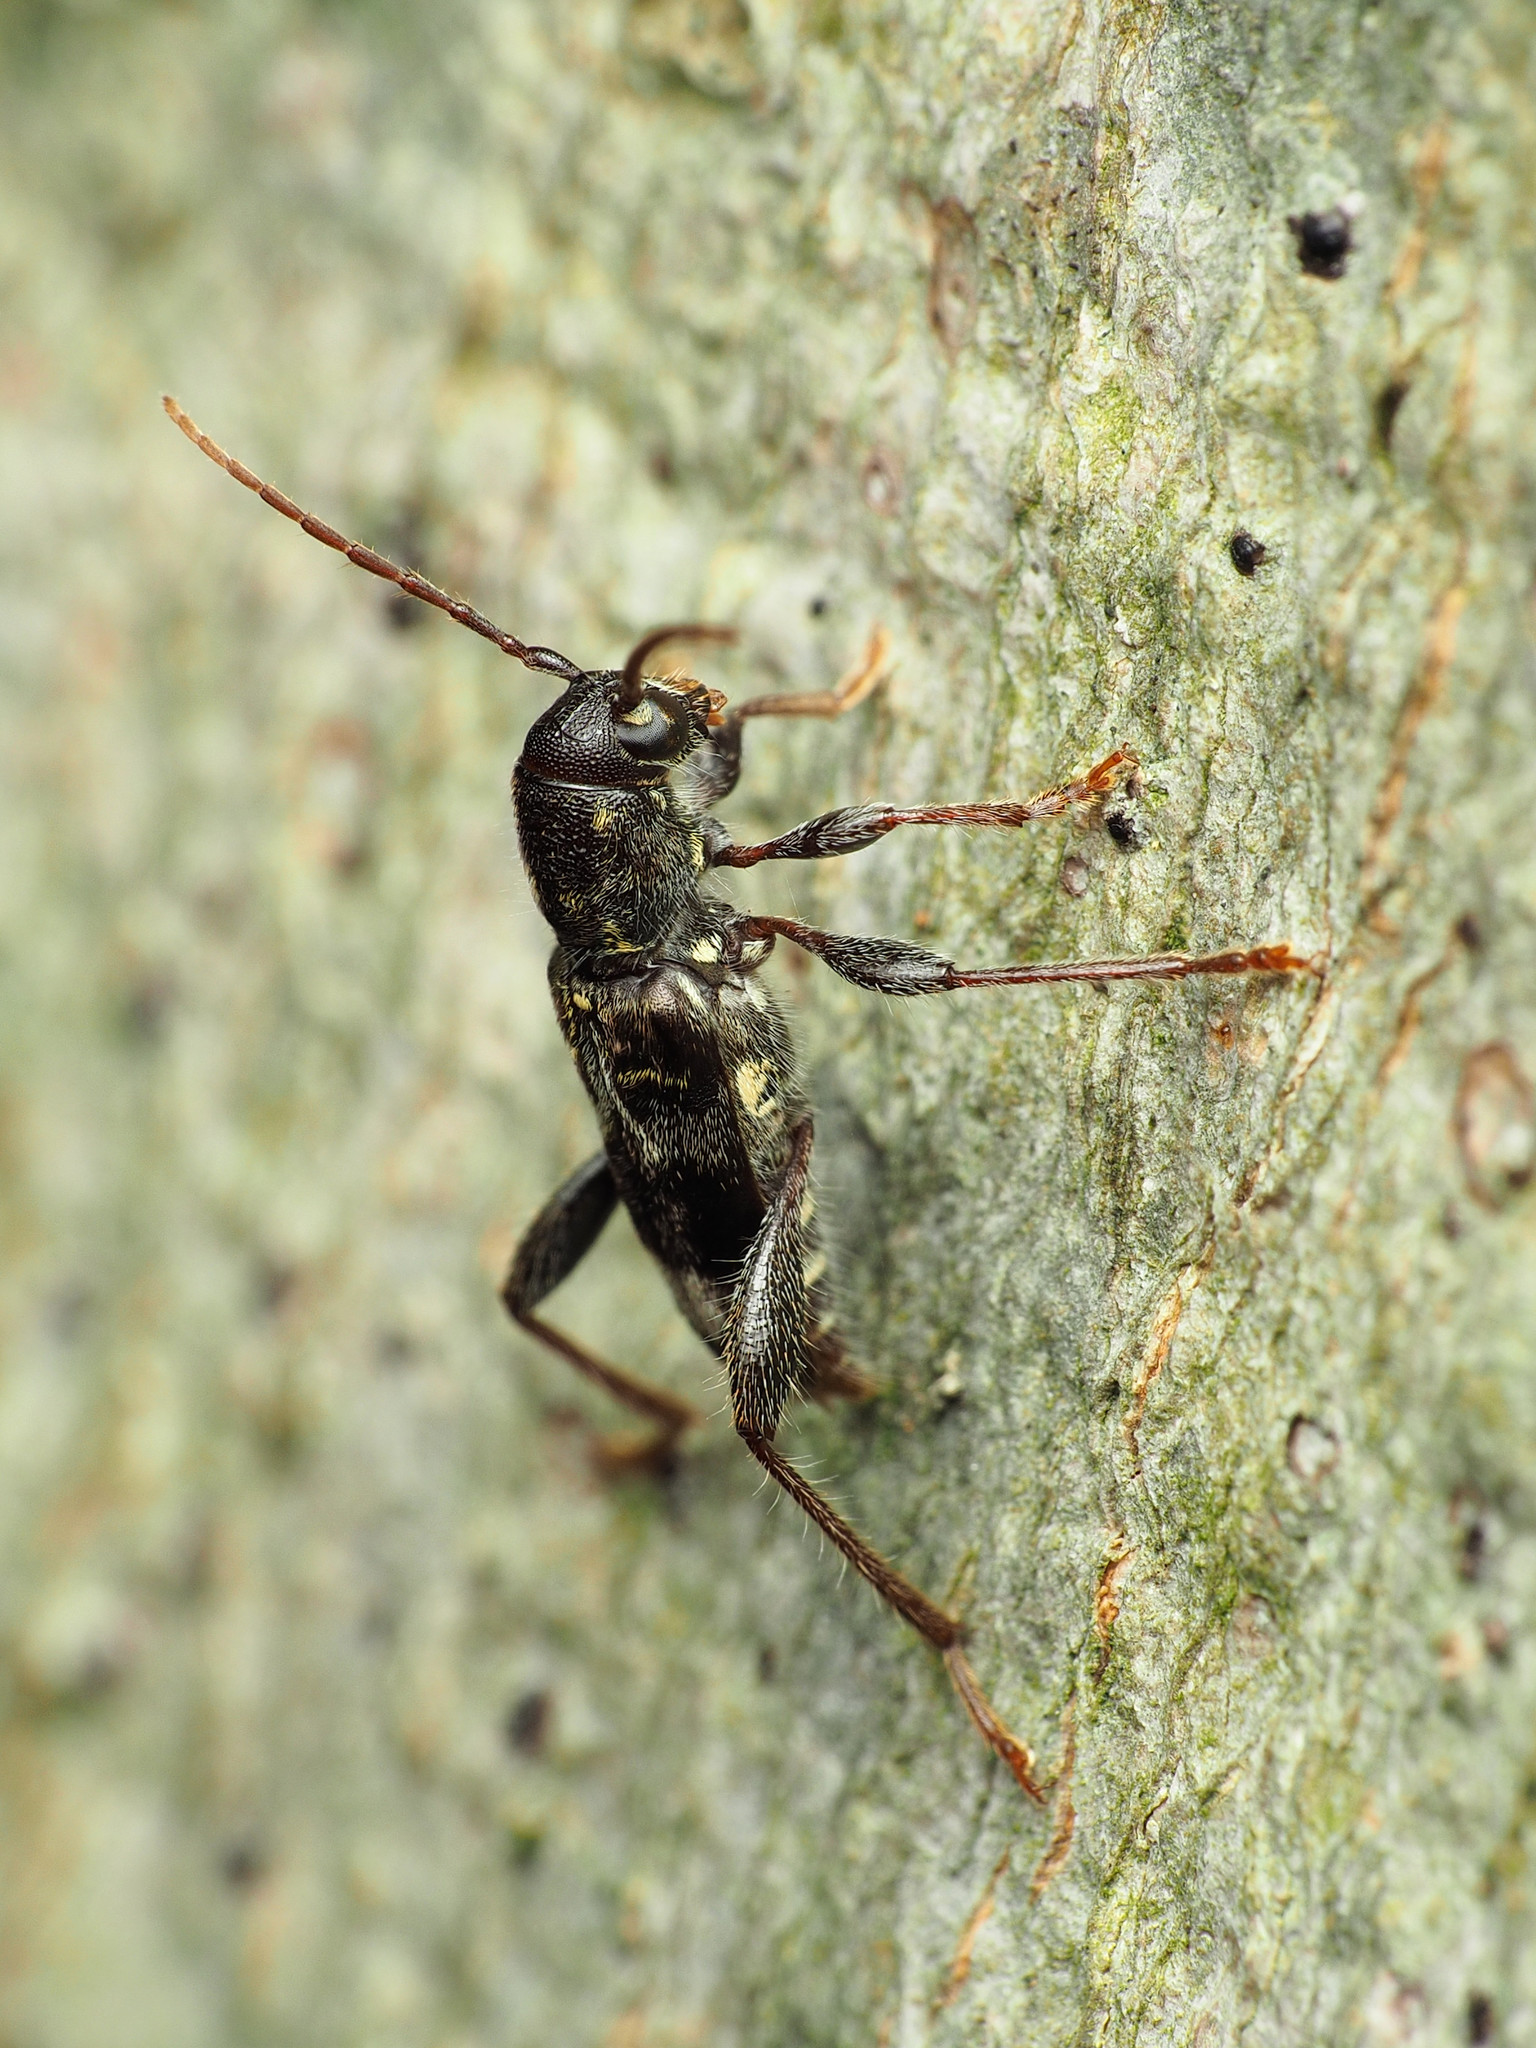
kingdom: Animalia
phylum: Arthropoda
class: Insecta
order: Coleoptera
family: Cerambycidae
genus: Xylotrechus
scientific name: Xylotrechus colonus
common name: Long-horned beetle
